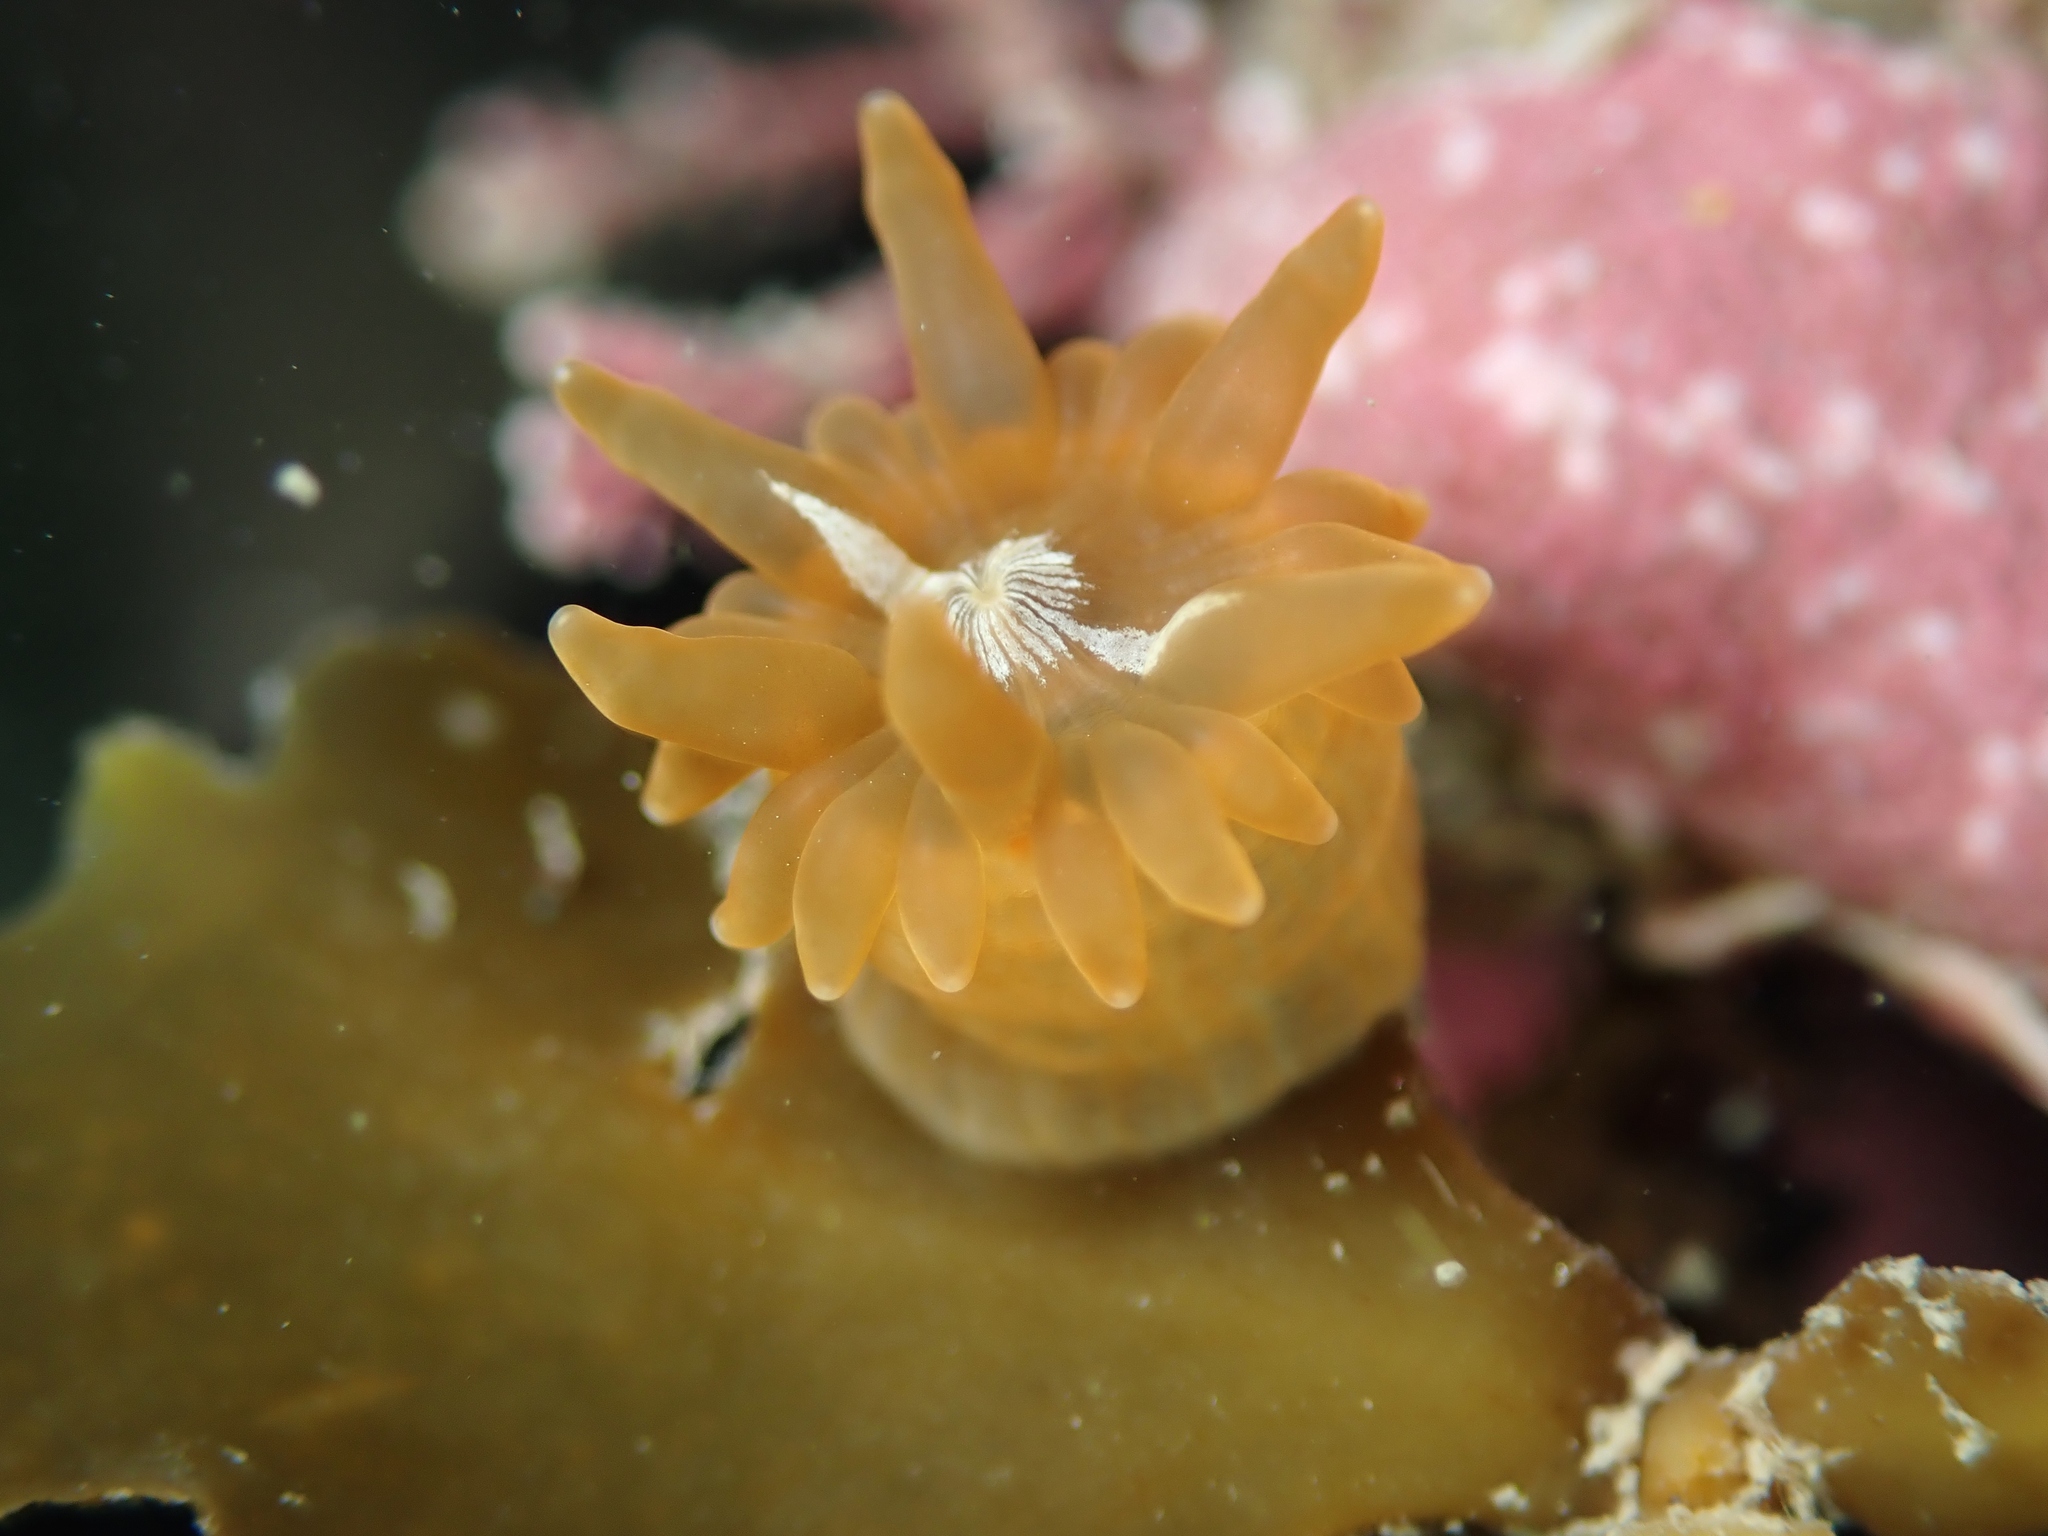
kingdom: Animalia
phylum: Cnidaria
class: Anthozoa
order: Actiniaria
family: Actiniidae
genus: Epiactis
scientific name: Epiactis
